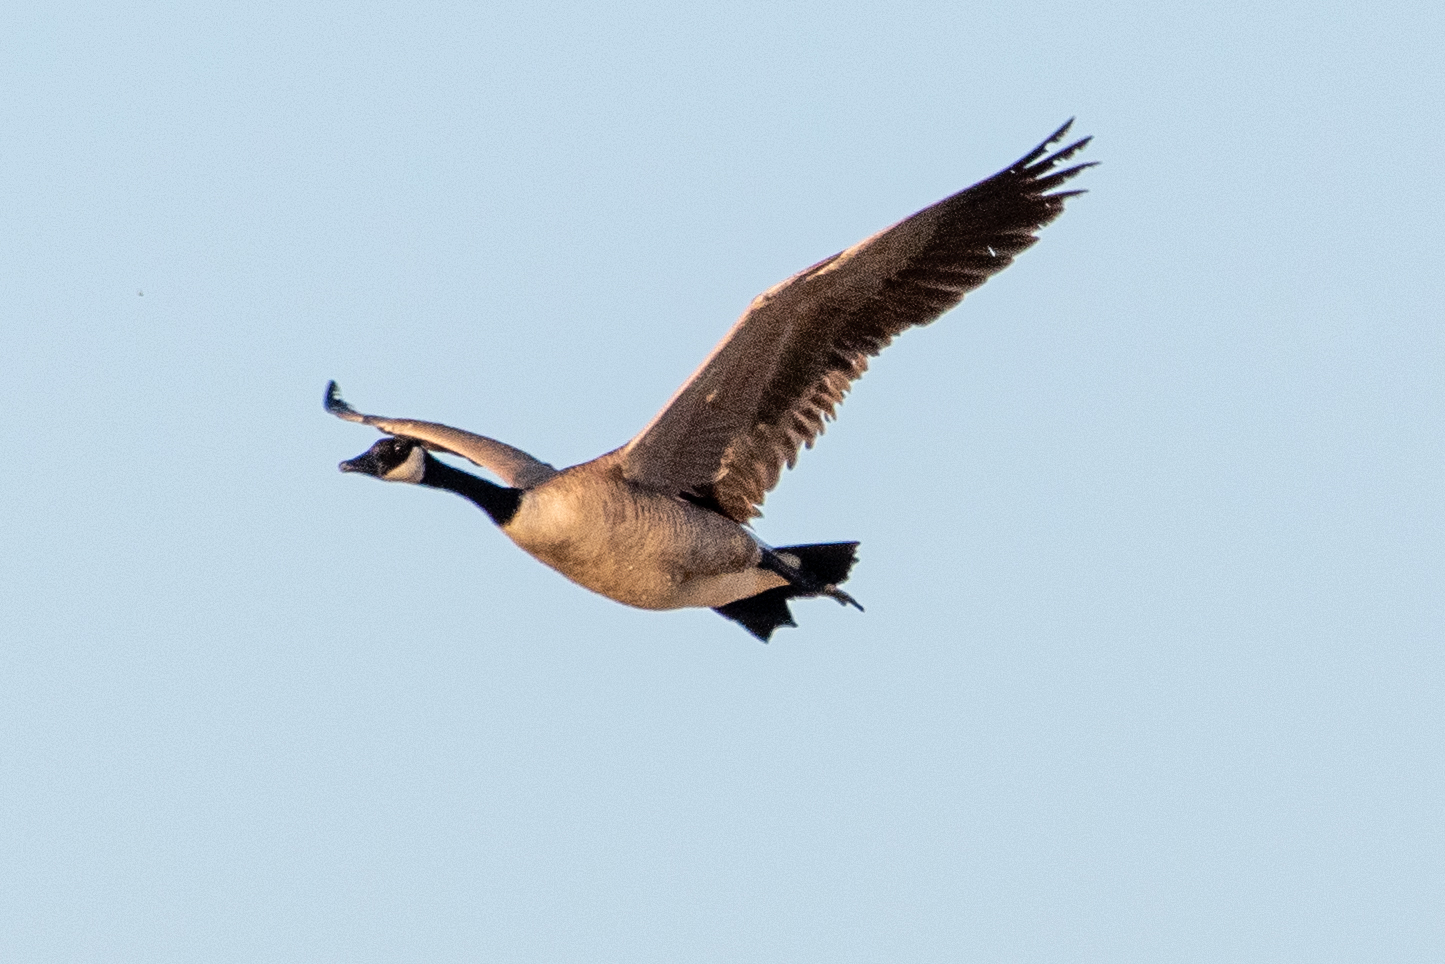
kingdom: Animalia
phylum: Chordata
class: Aves
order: Anseriformes
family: Anatidae
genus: Branta
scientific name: Branta canadensis
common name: Canada goose
